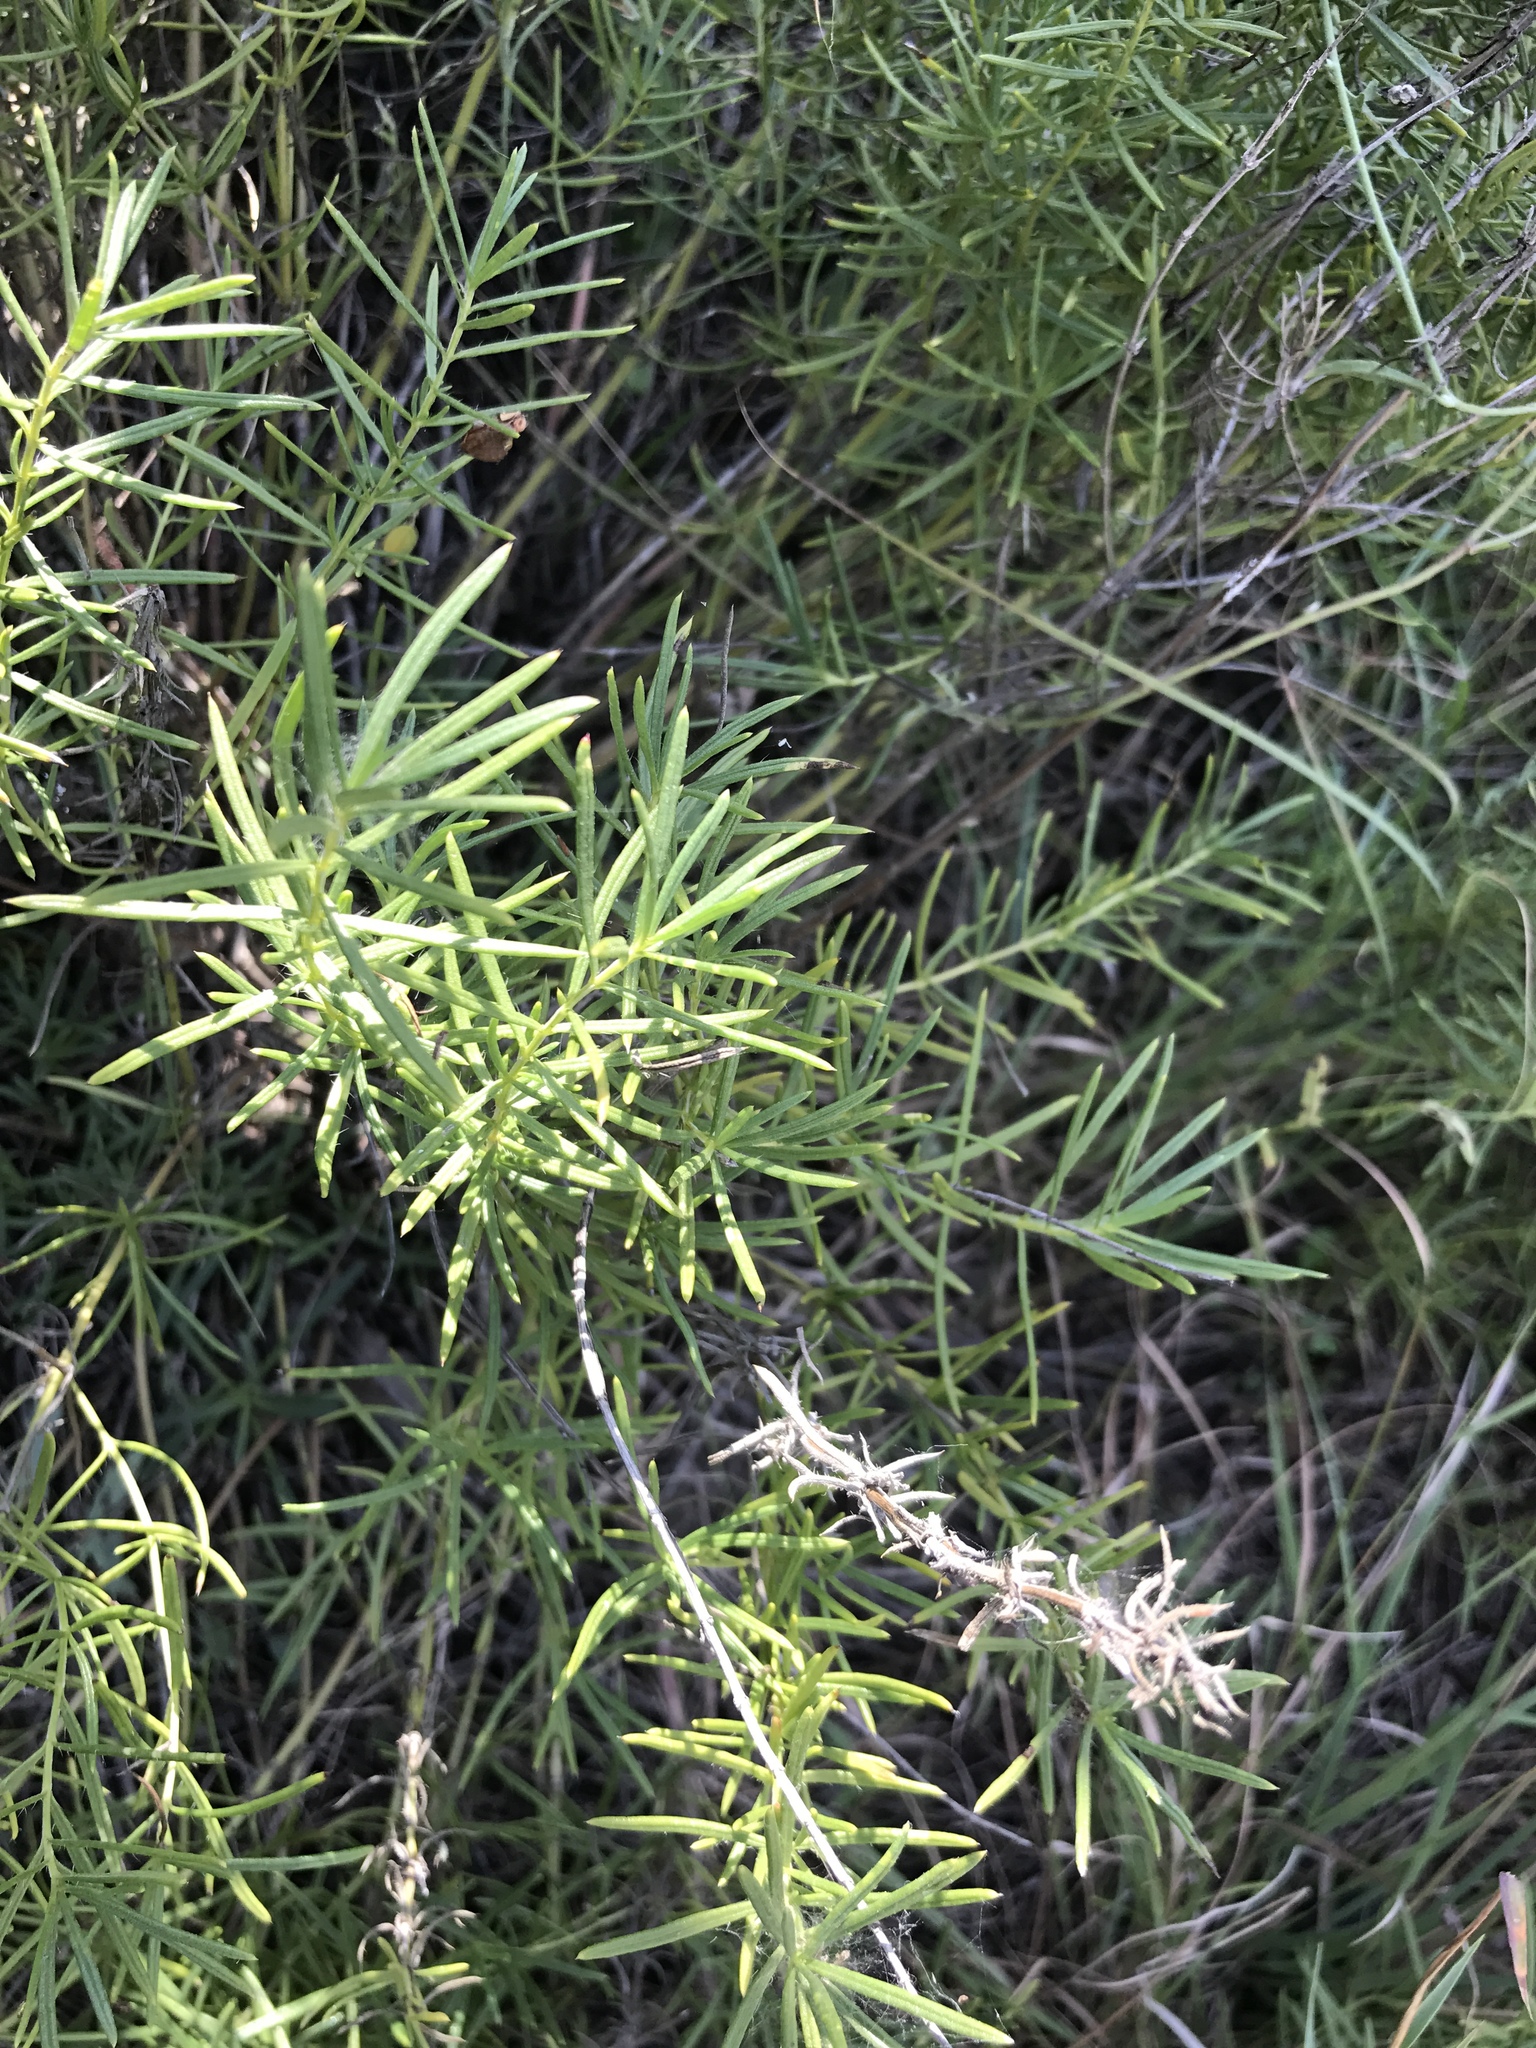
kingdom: Plantae
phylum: Tracheophyta
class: Magnoliopsida
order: Lamiales
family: Lamiaceae
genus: Salvia
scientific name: Salvia engelmannii
